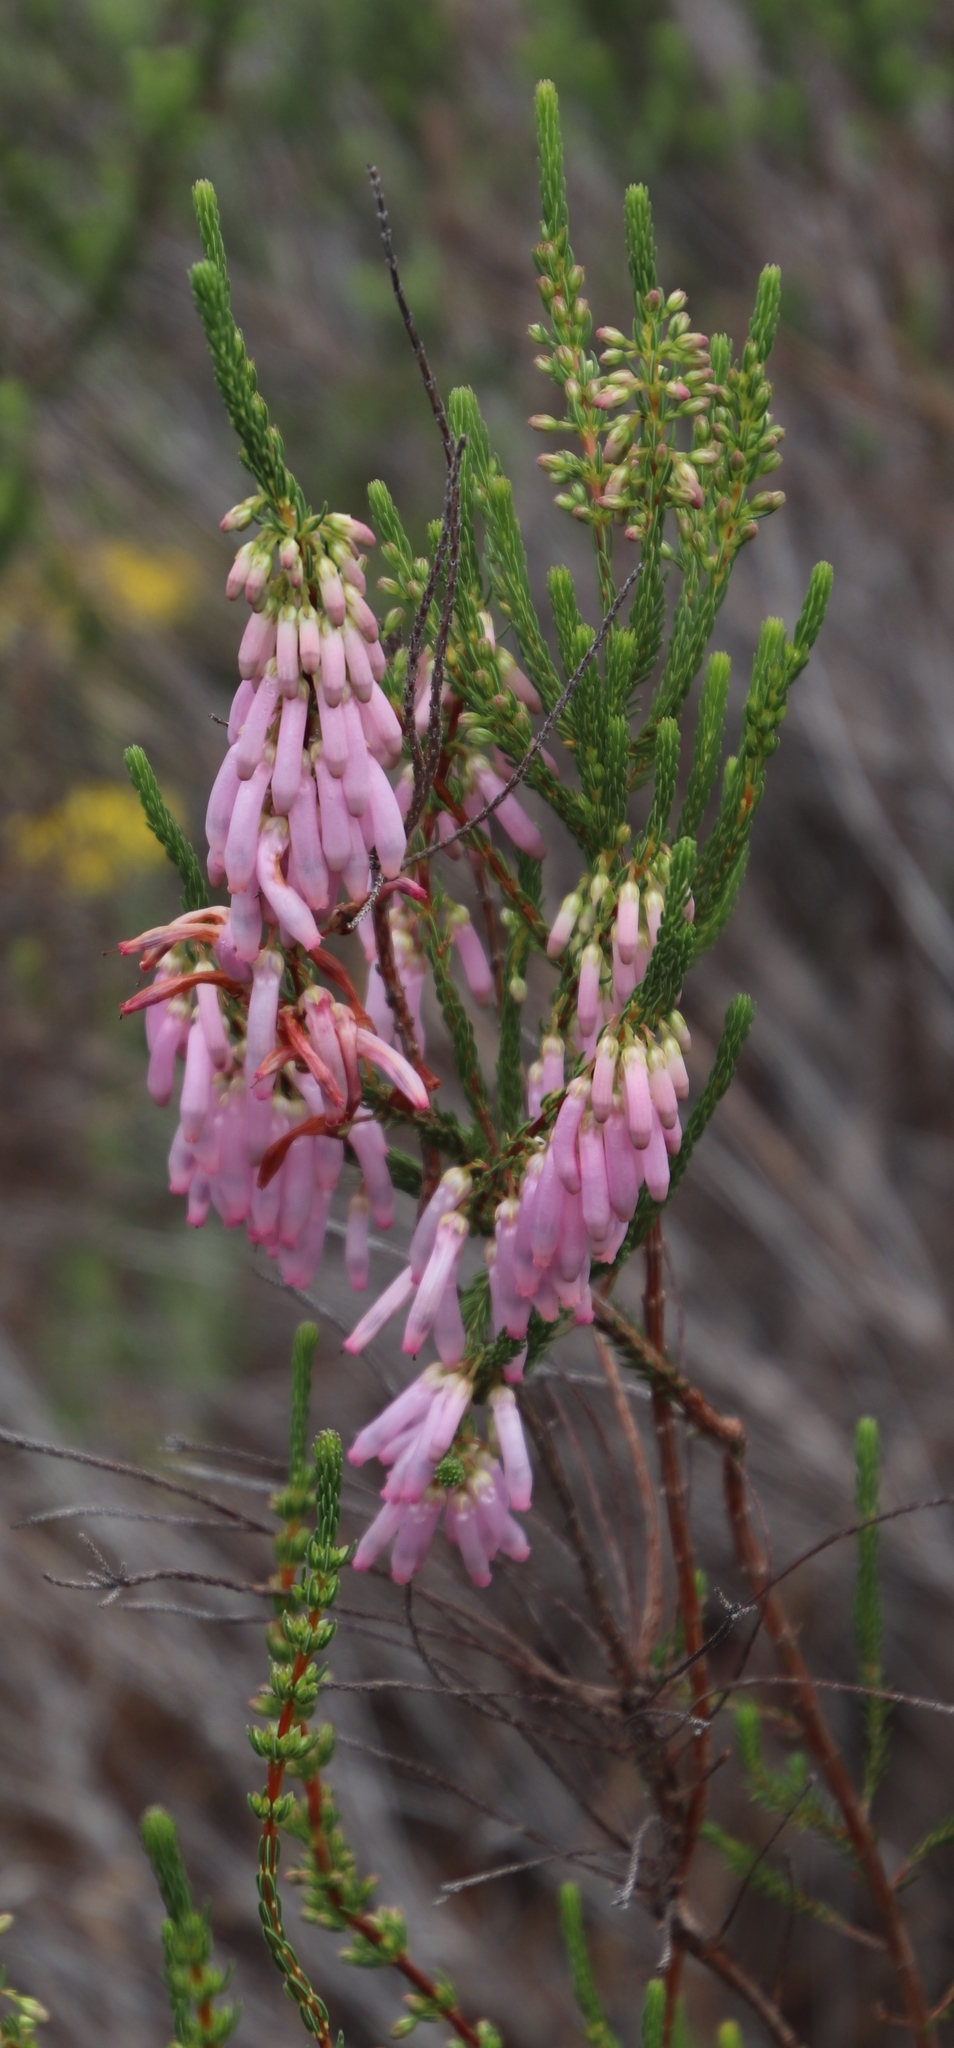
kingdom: Plantae
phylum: Tracheophyta
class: Magnoliopsida
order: Ericales
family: Ericaceae
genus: Erica
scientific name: Erica mammosa
